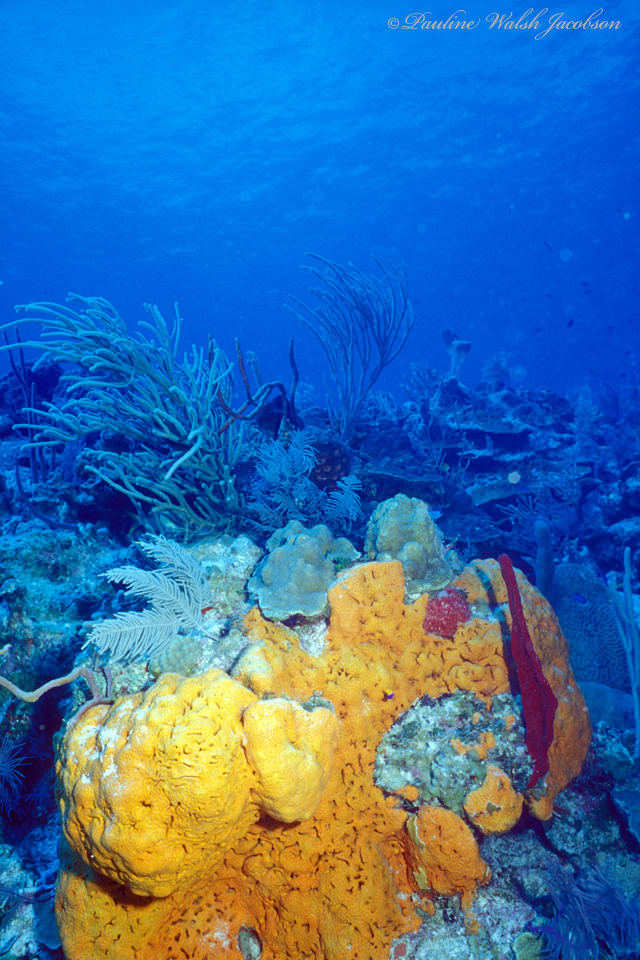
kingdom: Animalia
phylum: Porifera
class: Demospongiae
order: Agelasida
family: Agelasidae
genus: Agelas
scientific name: Agelas clathrodes
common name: Orange elephant ear sponge
